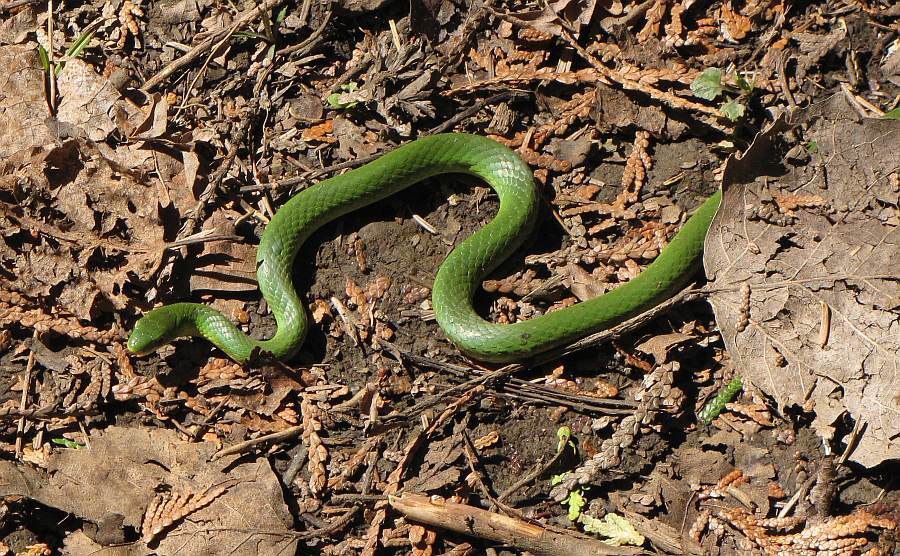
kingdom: Animalia
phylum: Chordata
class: Squamata
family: Colubridae
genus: Opheodrys
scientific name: Opheodrys vernalis
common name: Smooth green snake
